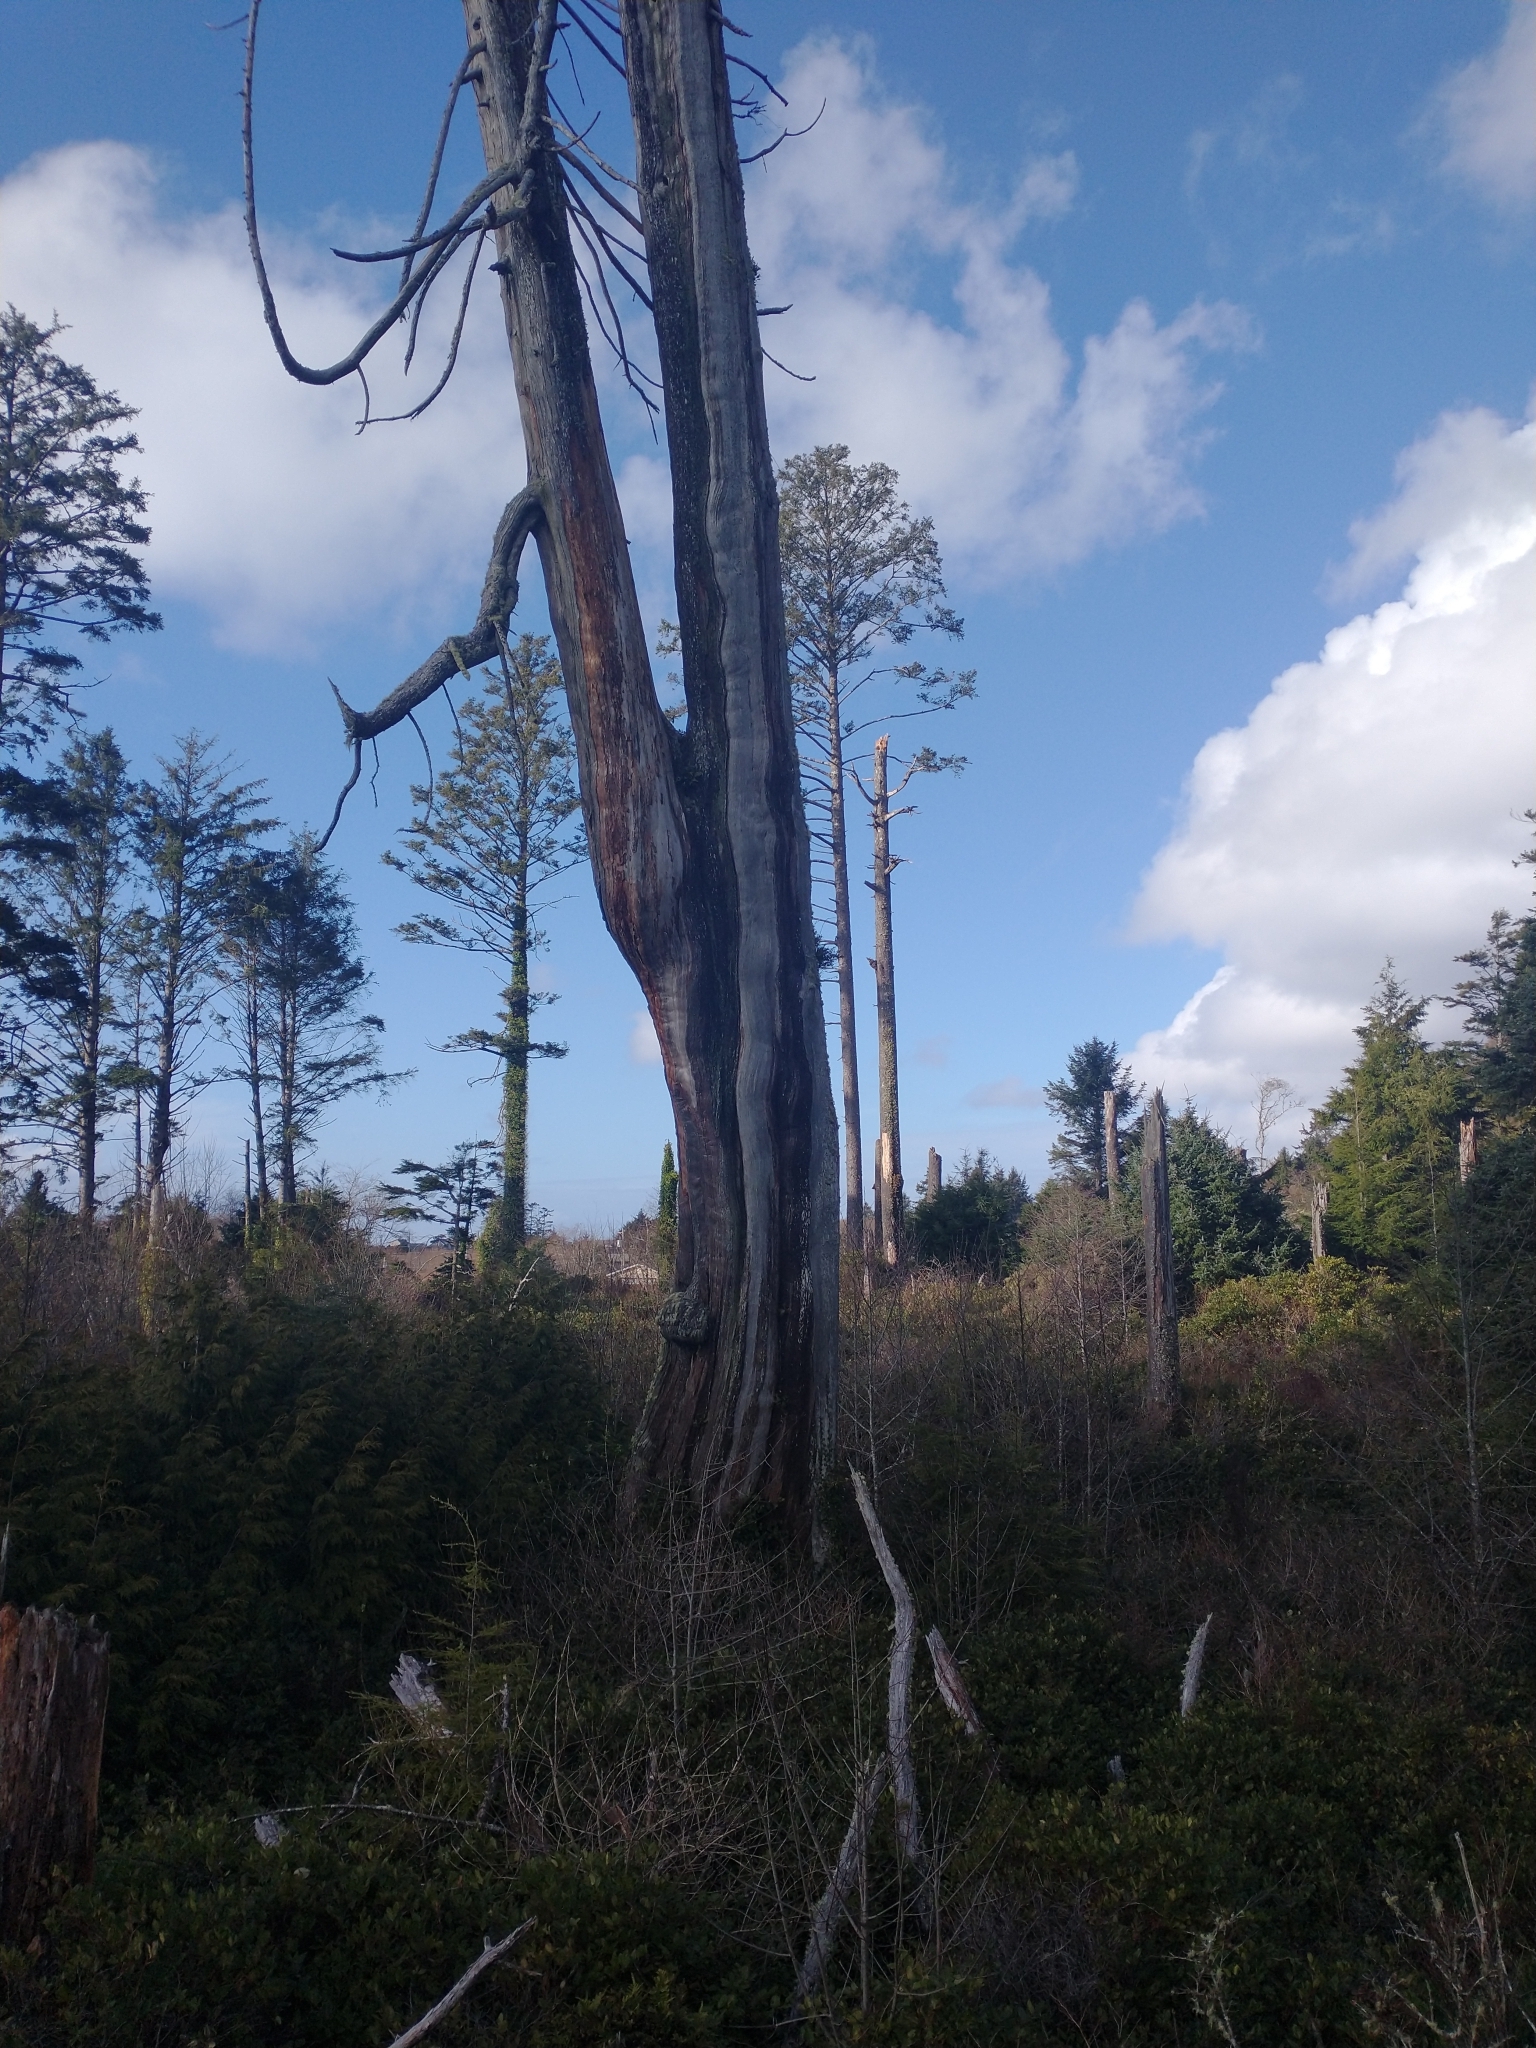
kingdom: Plantae
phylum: Tracheophyta
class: Pinopsida
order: Pinales
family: Cupressaceae
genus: Thuja
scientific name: Thuja plicata
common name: Western red-cedar
